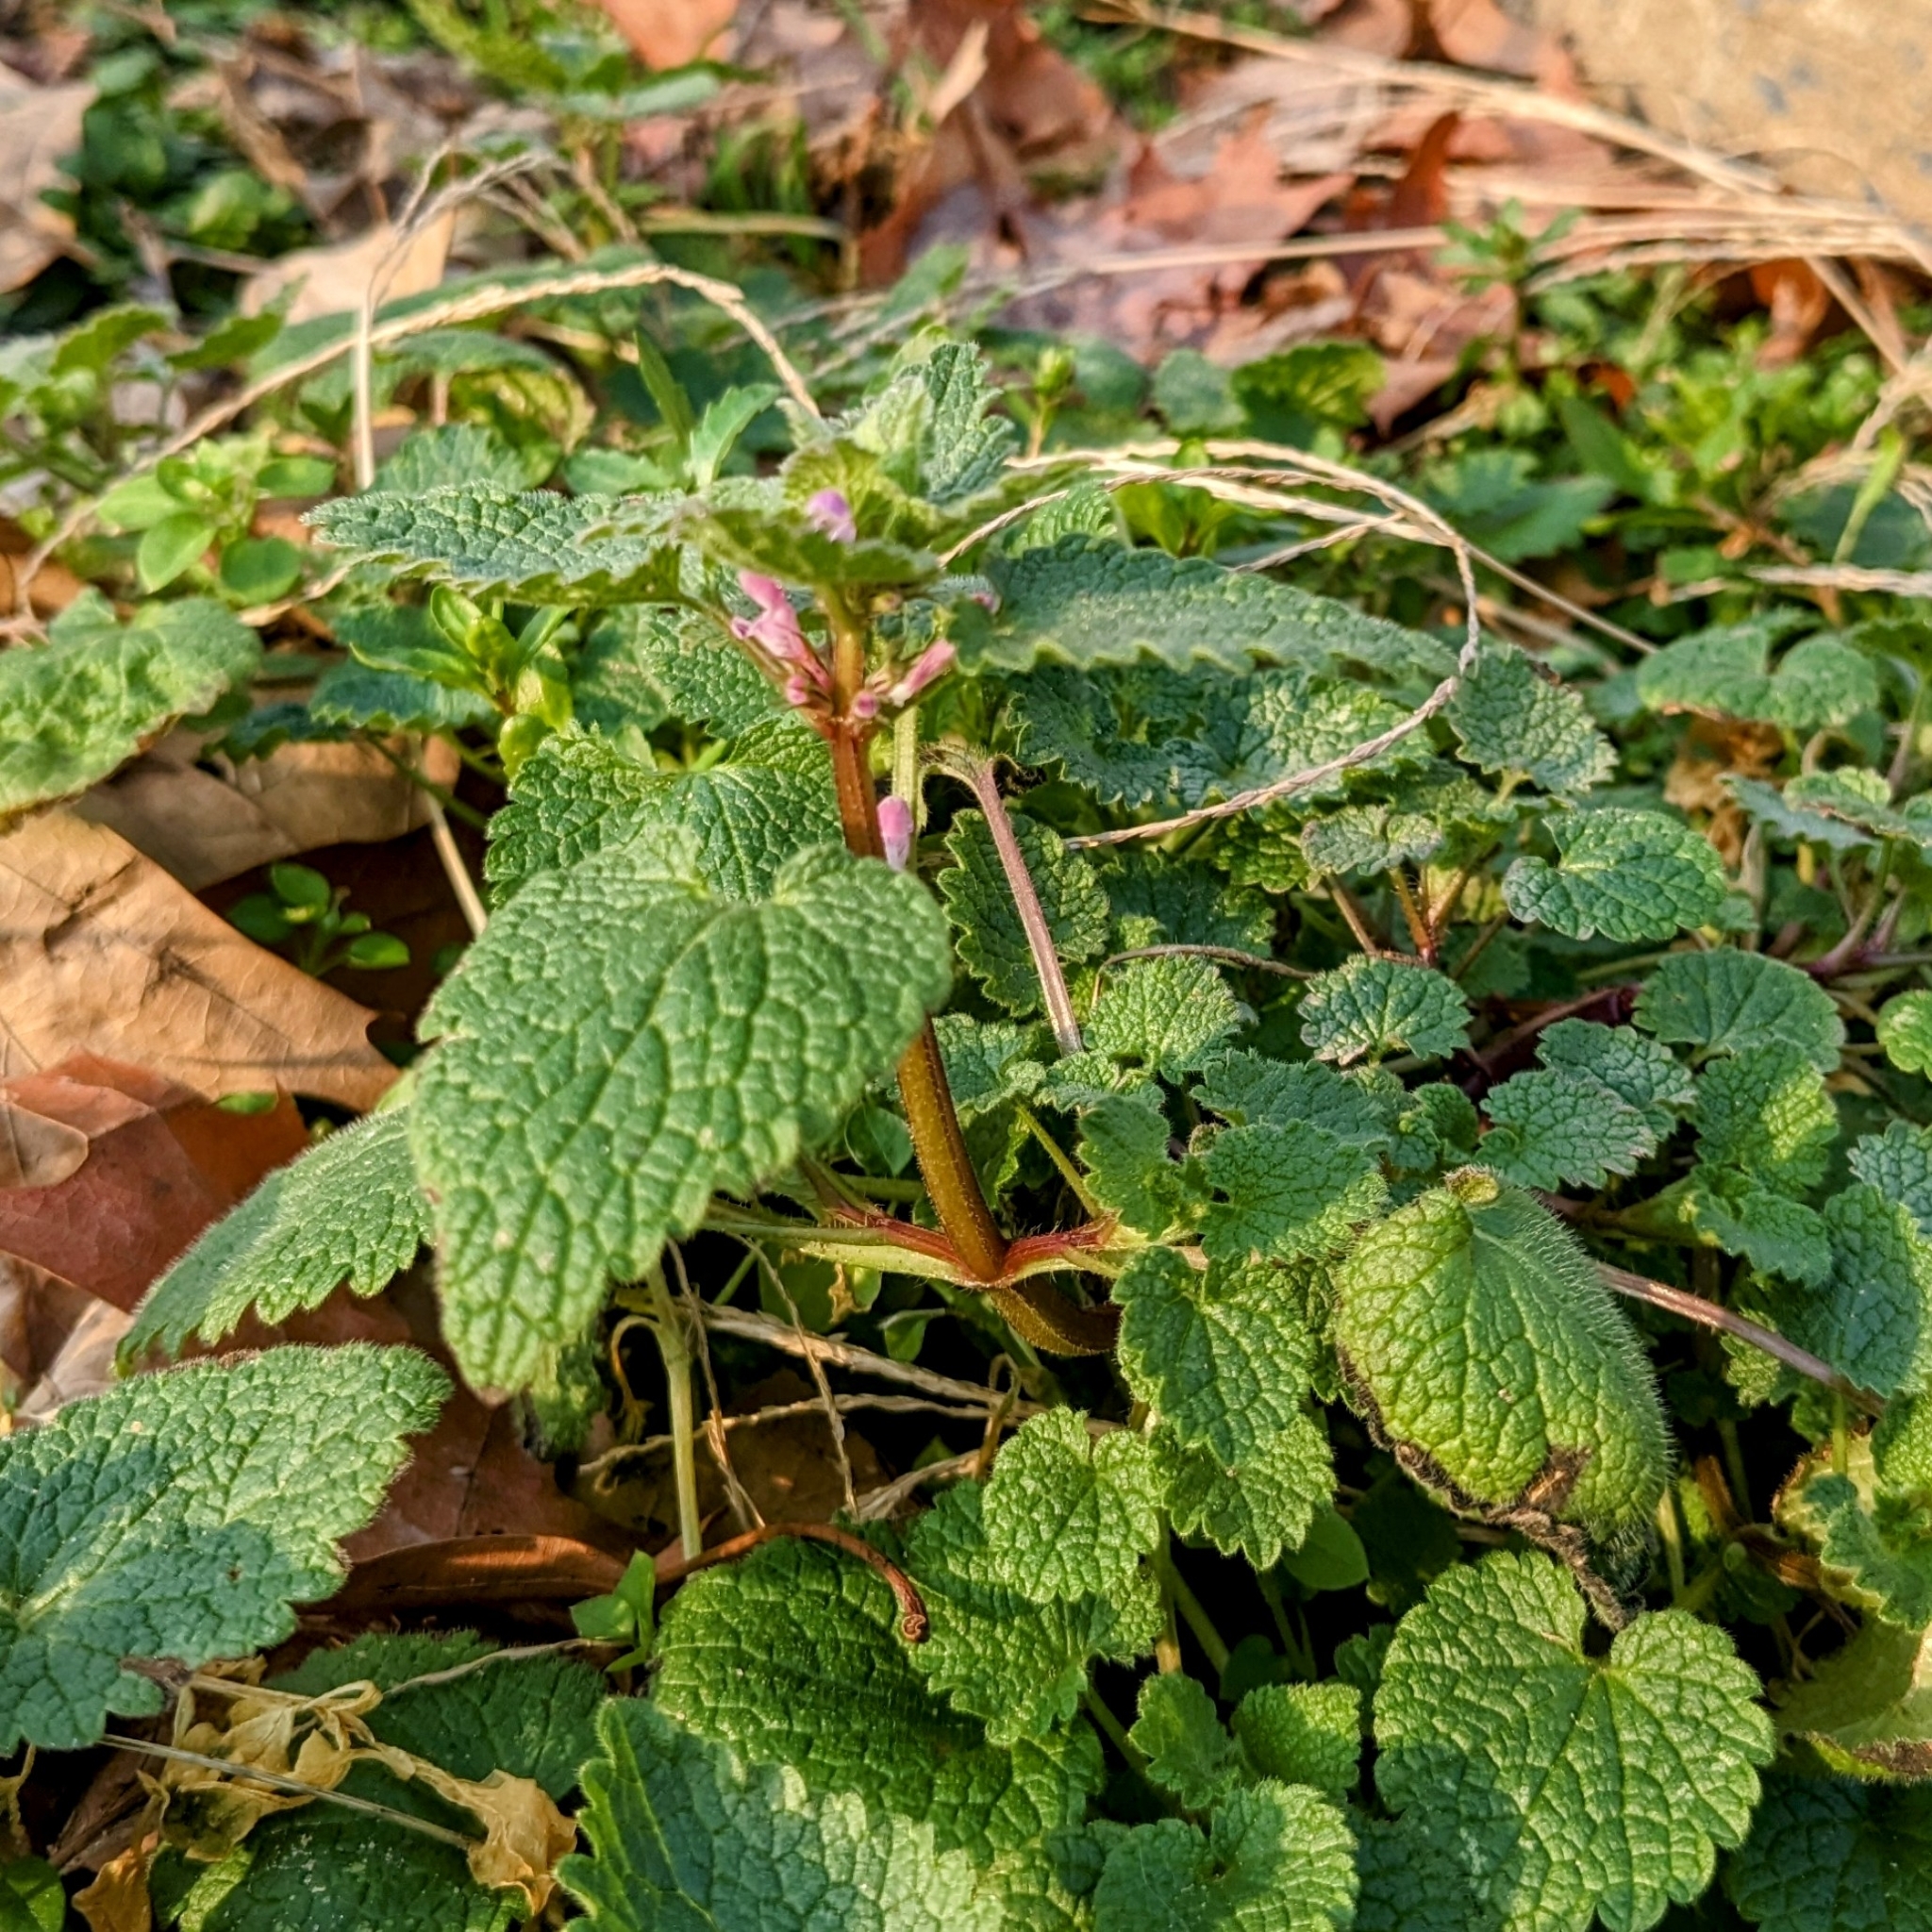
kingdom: Plantae
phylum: Tracheophyta
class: Magnoliopsida
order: Lamiales
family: Lamiaceae
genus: Lamium
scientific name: Lamium purpureum
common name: Red dead-nettle
